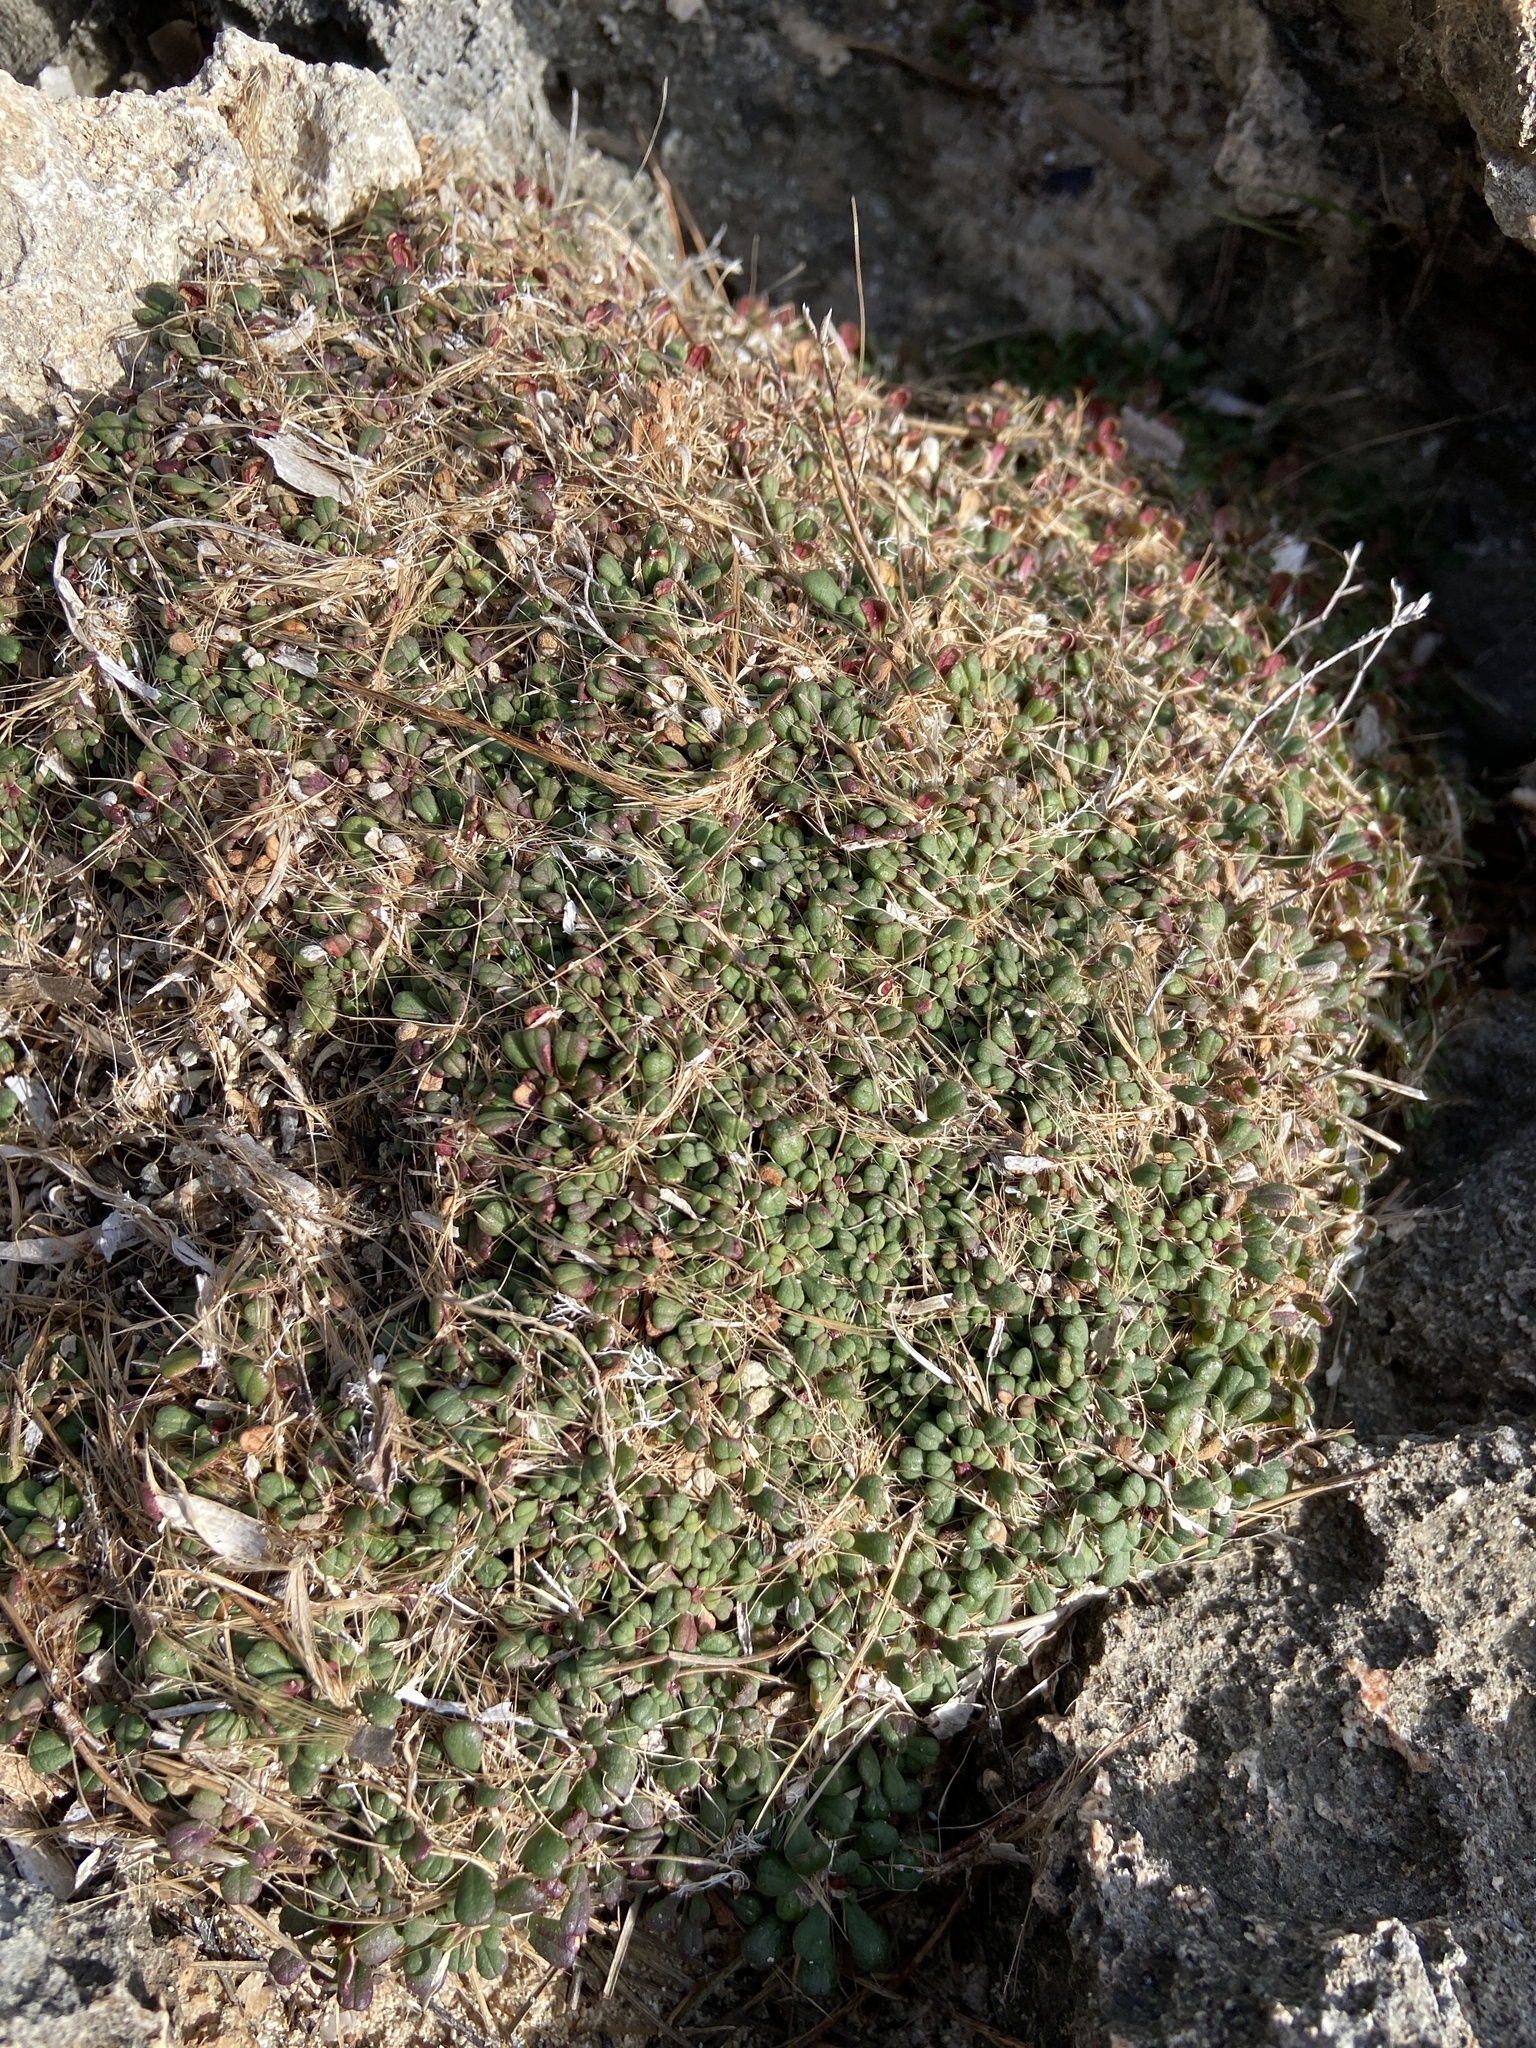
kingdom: Plantae
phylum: Tracheophyta
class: Magnoliopsida
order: Caryophyllales
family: Plumbaginaceae
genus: Limonium
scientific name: Limonium minutum
